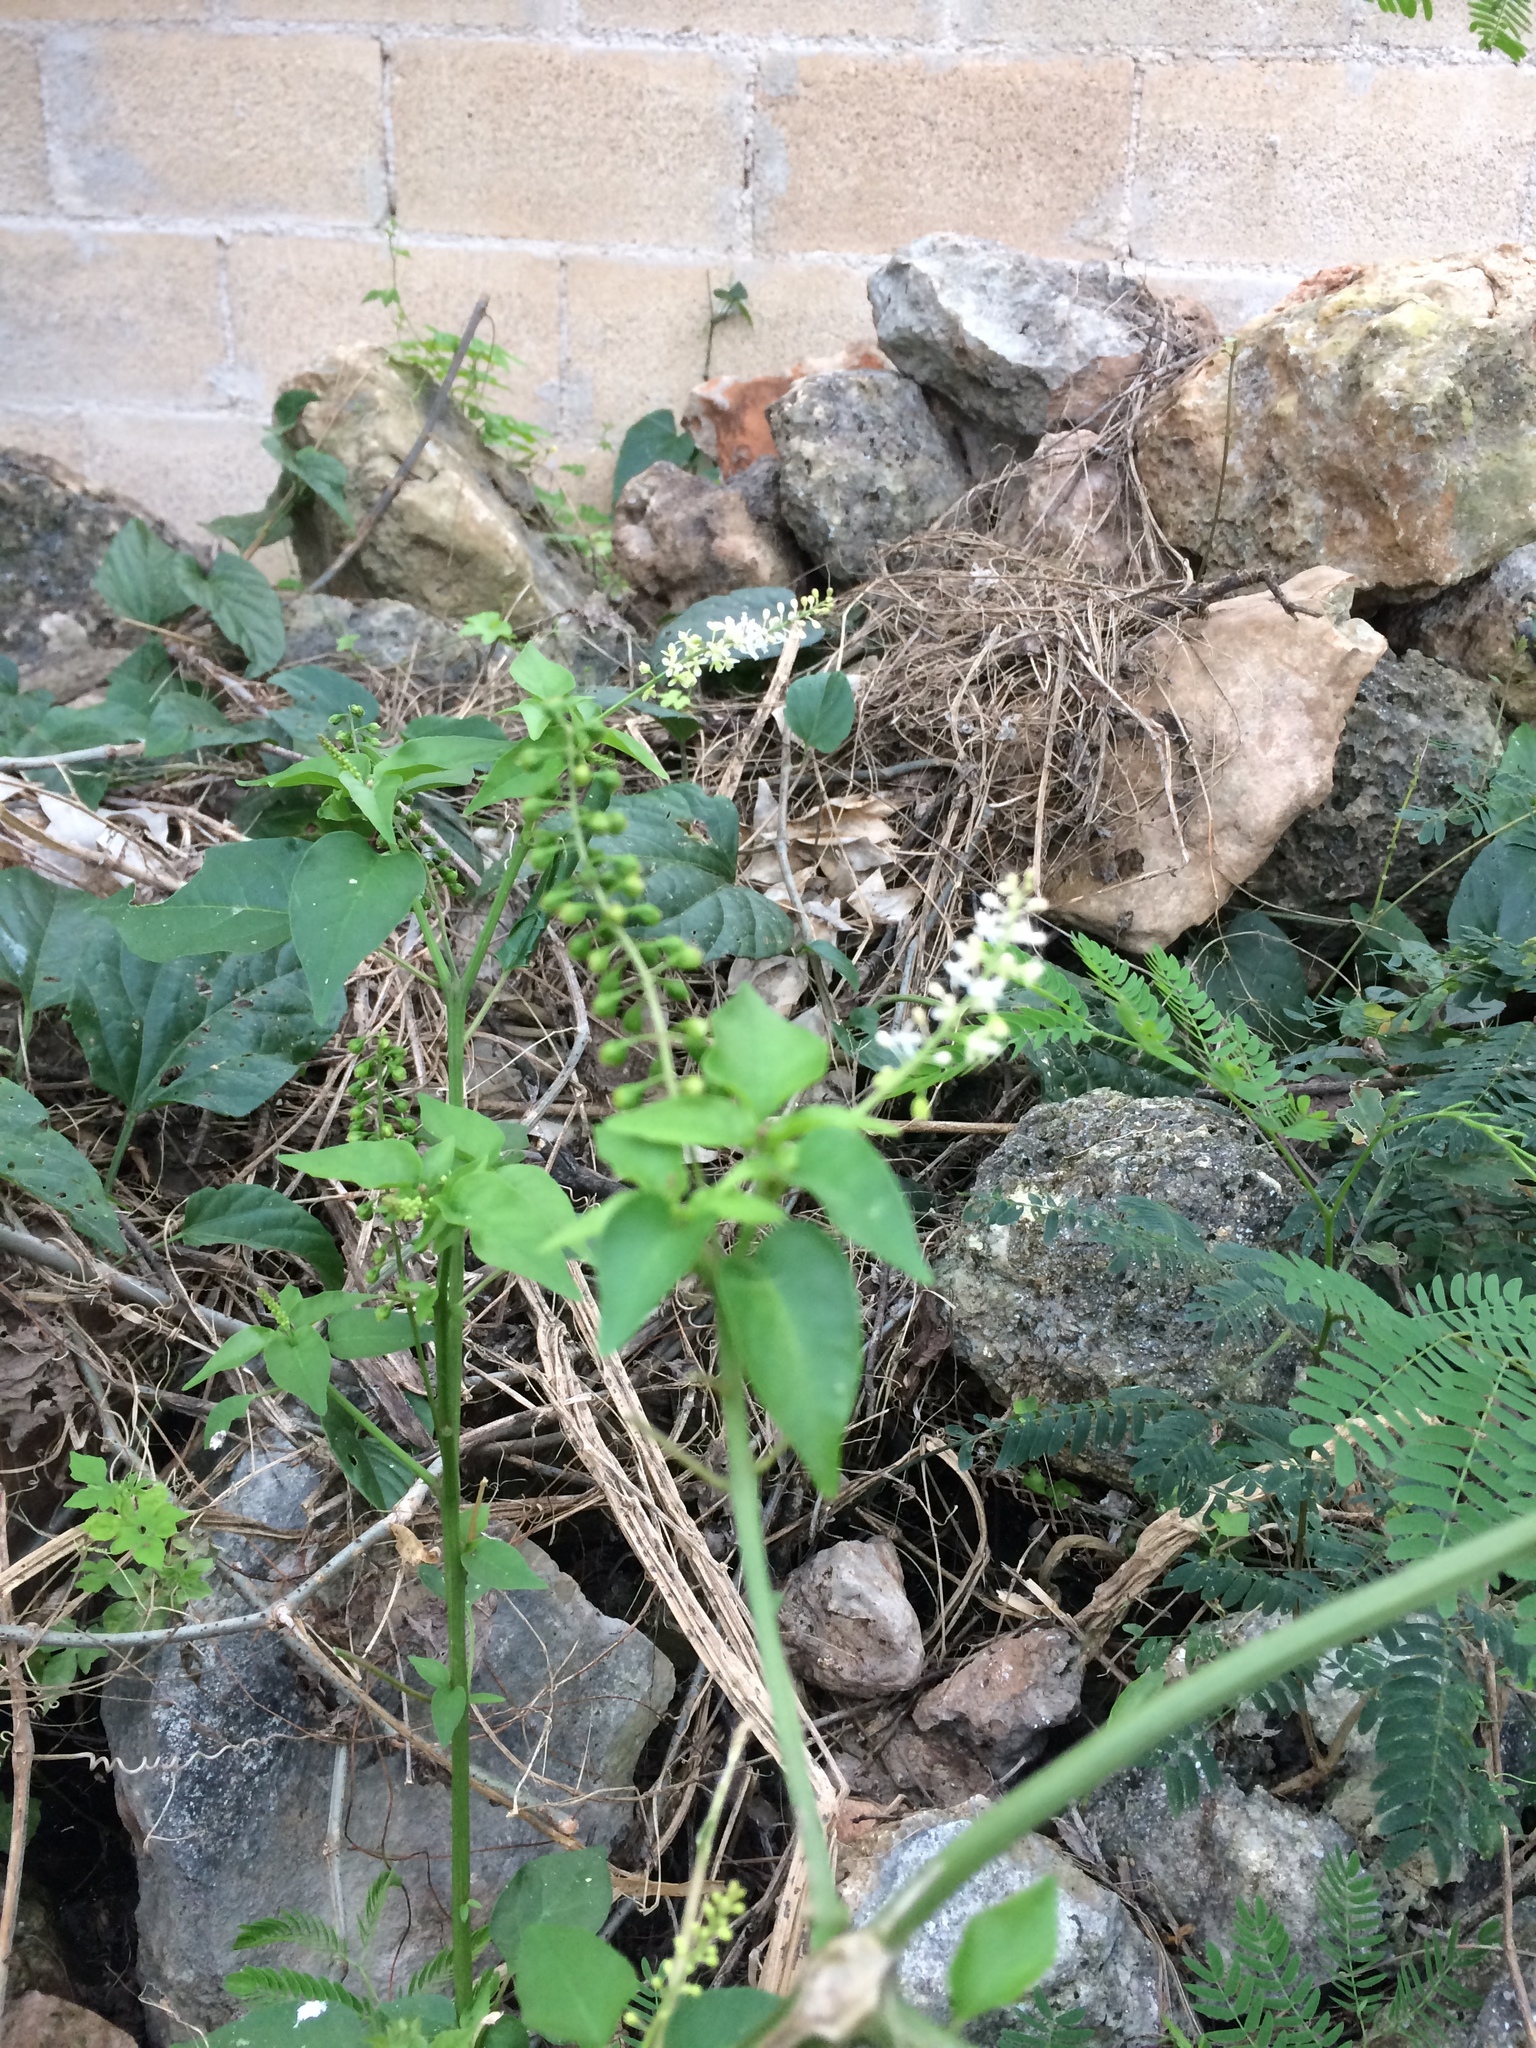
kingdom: Plantae
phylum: Tracheophyta
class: Magnoliopsida
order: Caryophyllales
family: Phytolaccaceae
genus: Rivina
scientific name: Rivina humilis
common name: Rougeplant
